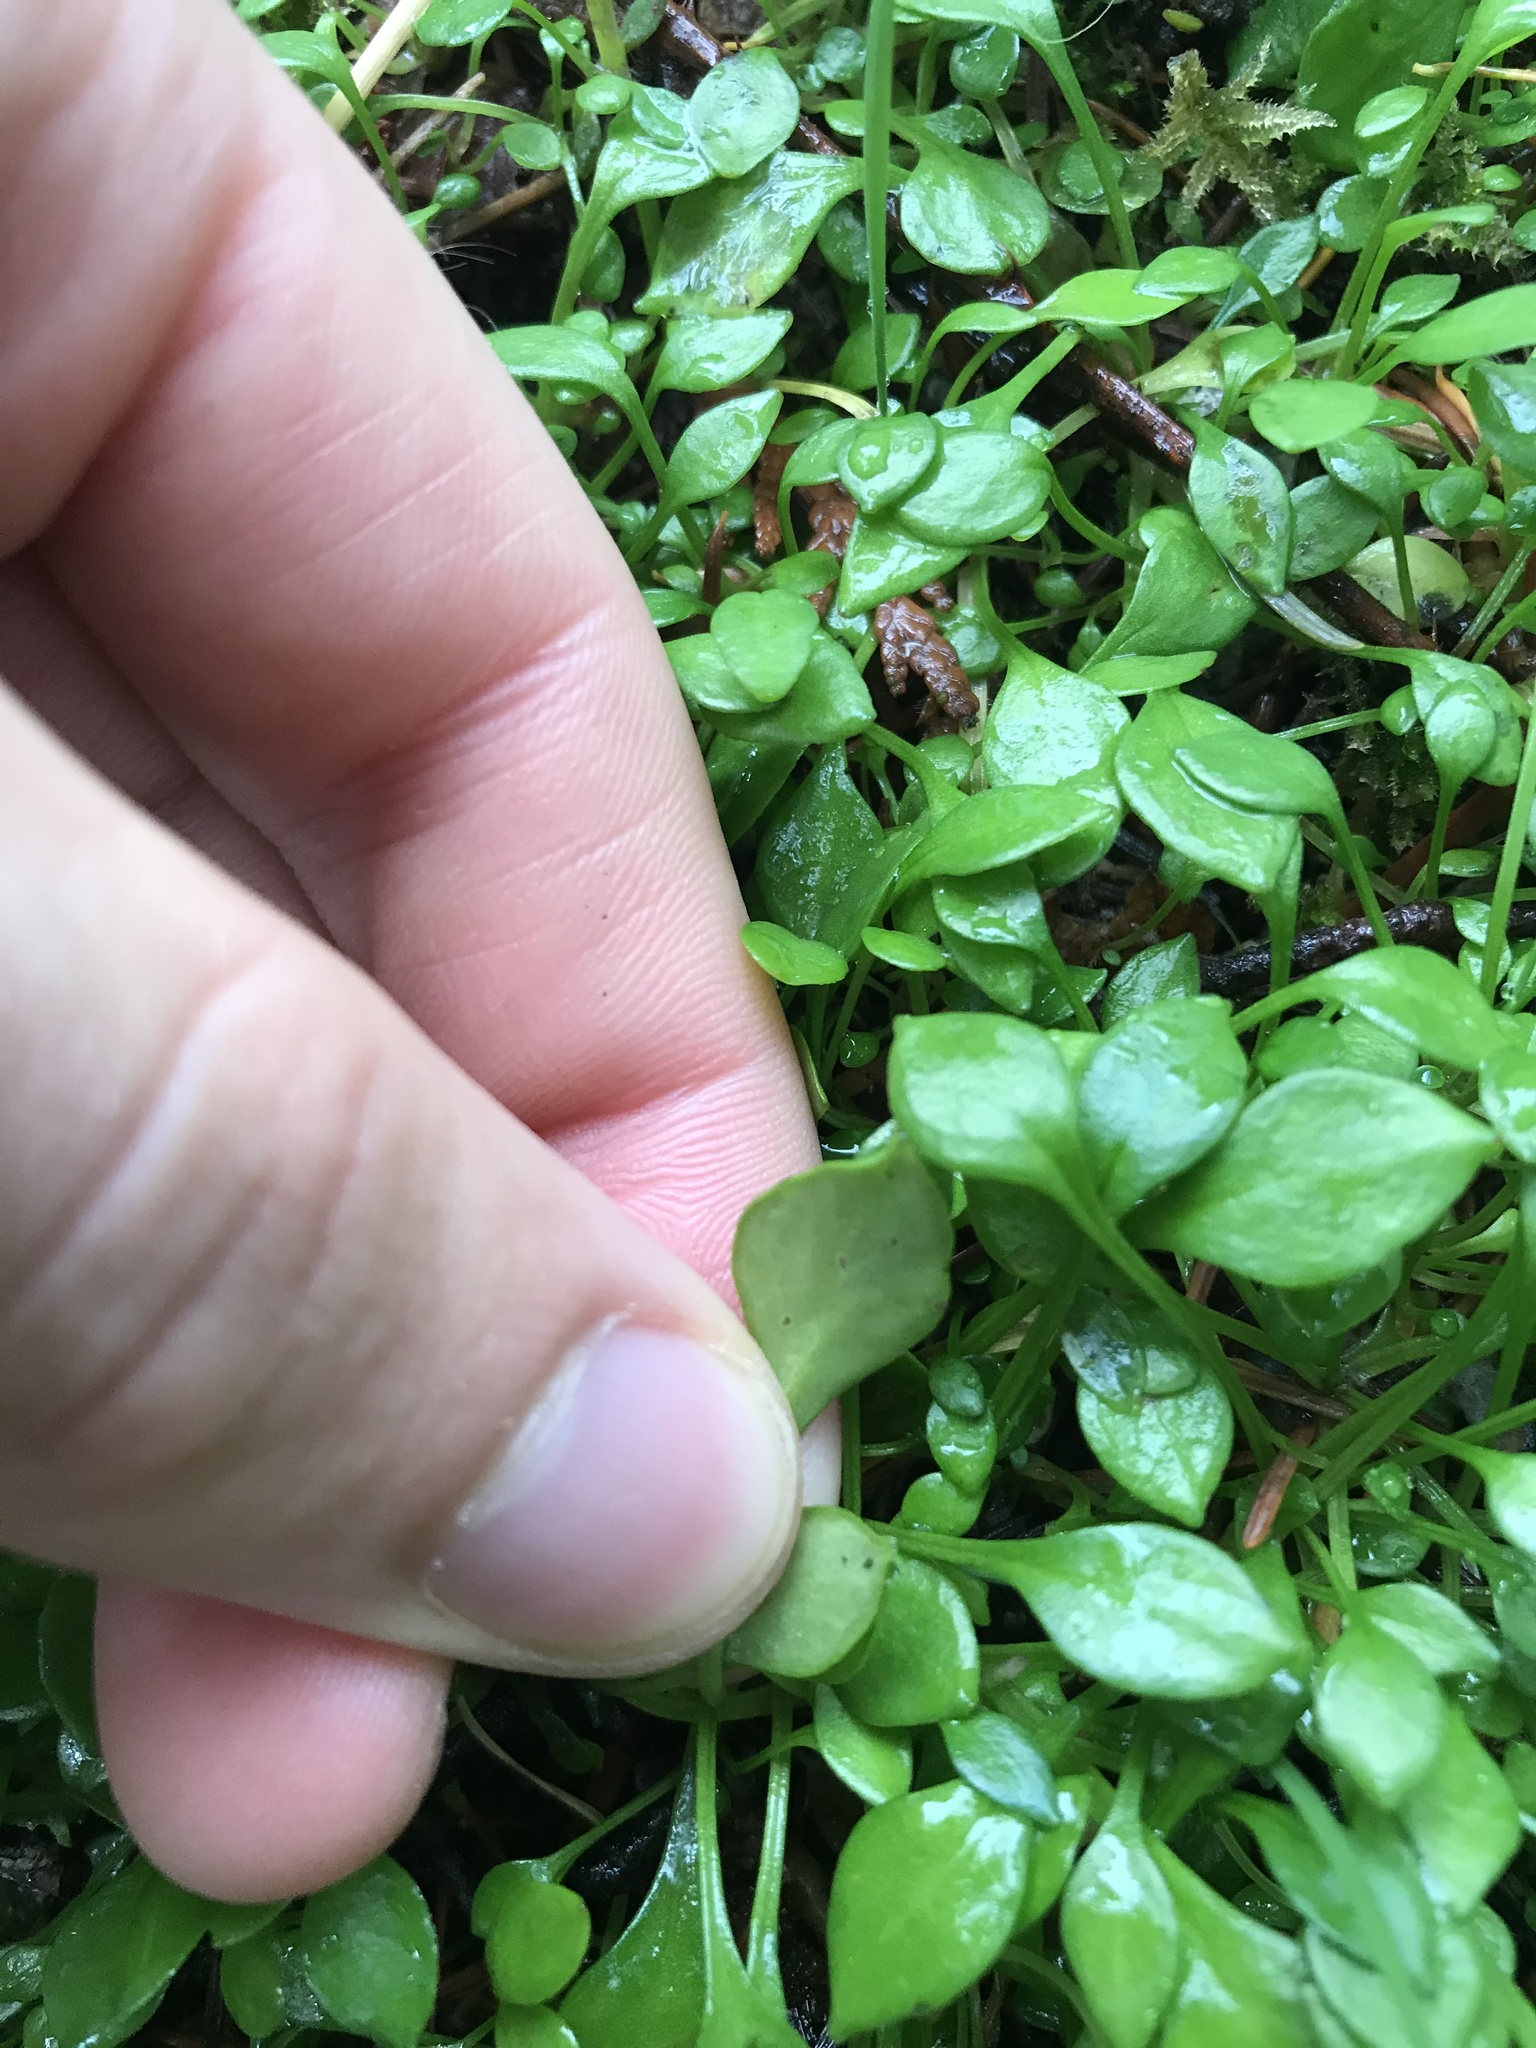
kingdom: Plantae
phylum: Tracheophyta
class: Magnoliopsida
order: Caryophyllales
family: Montiaceae
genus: Montia
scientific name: Montia parvifolia
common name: Small-leaved blinks
